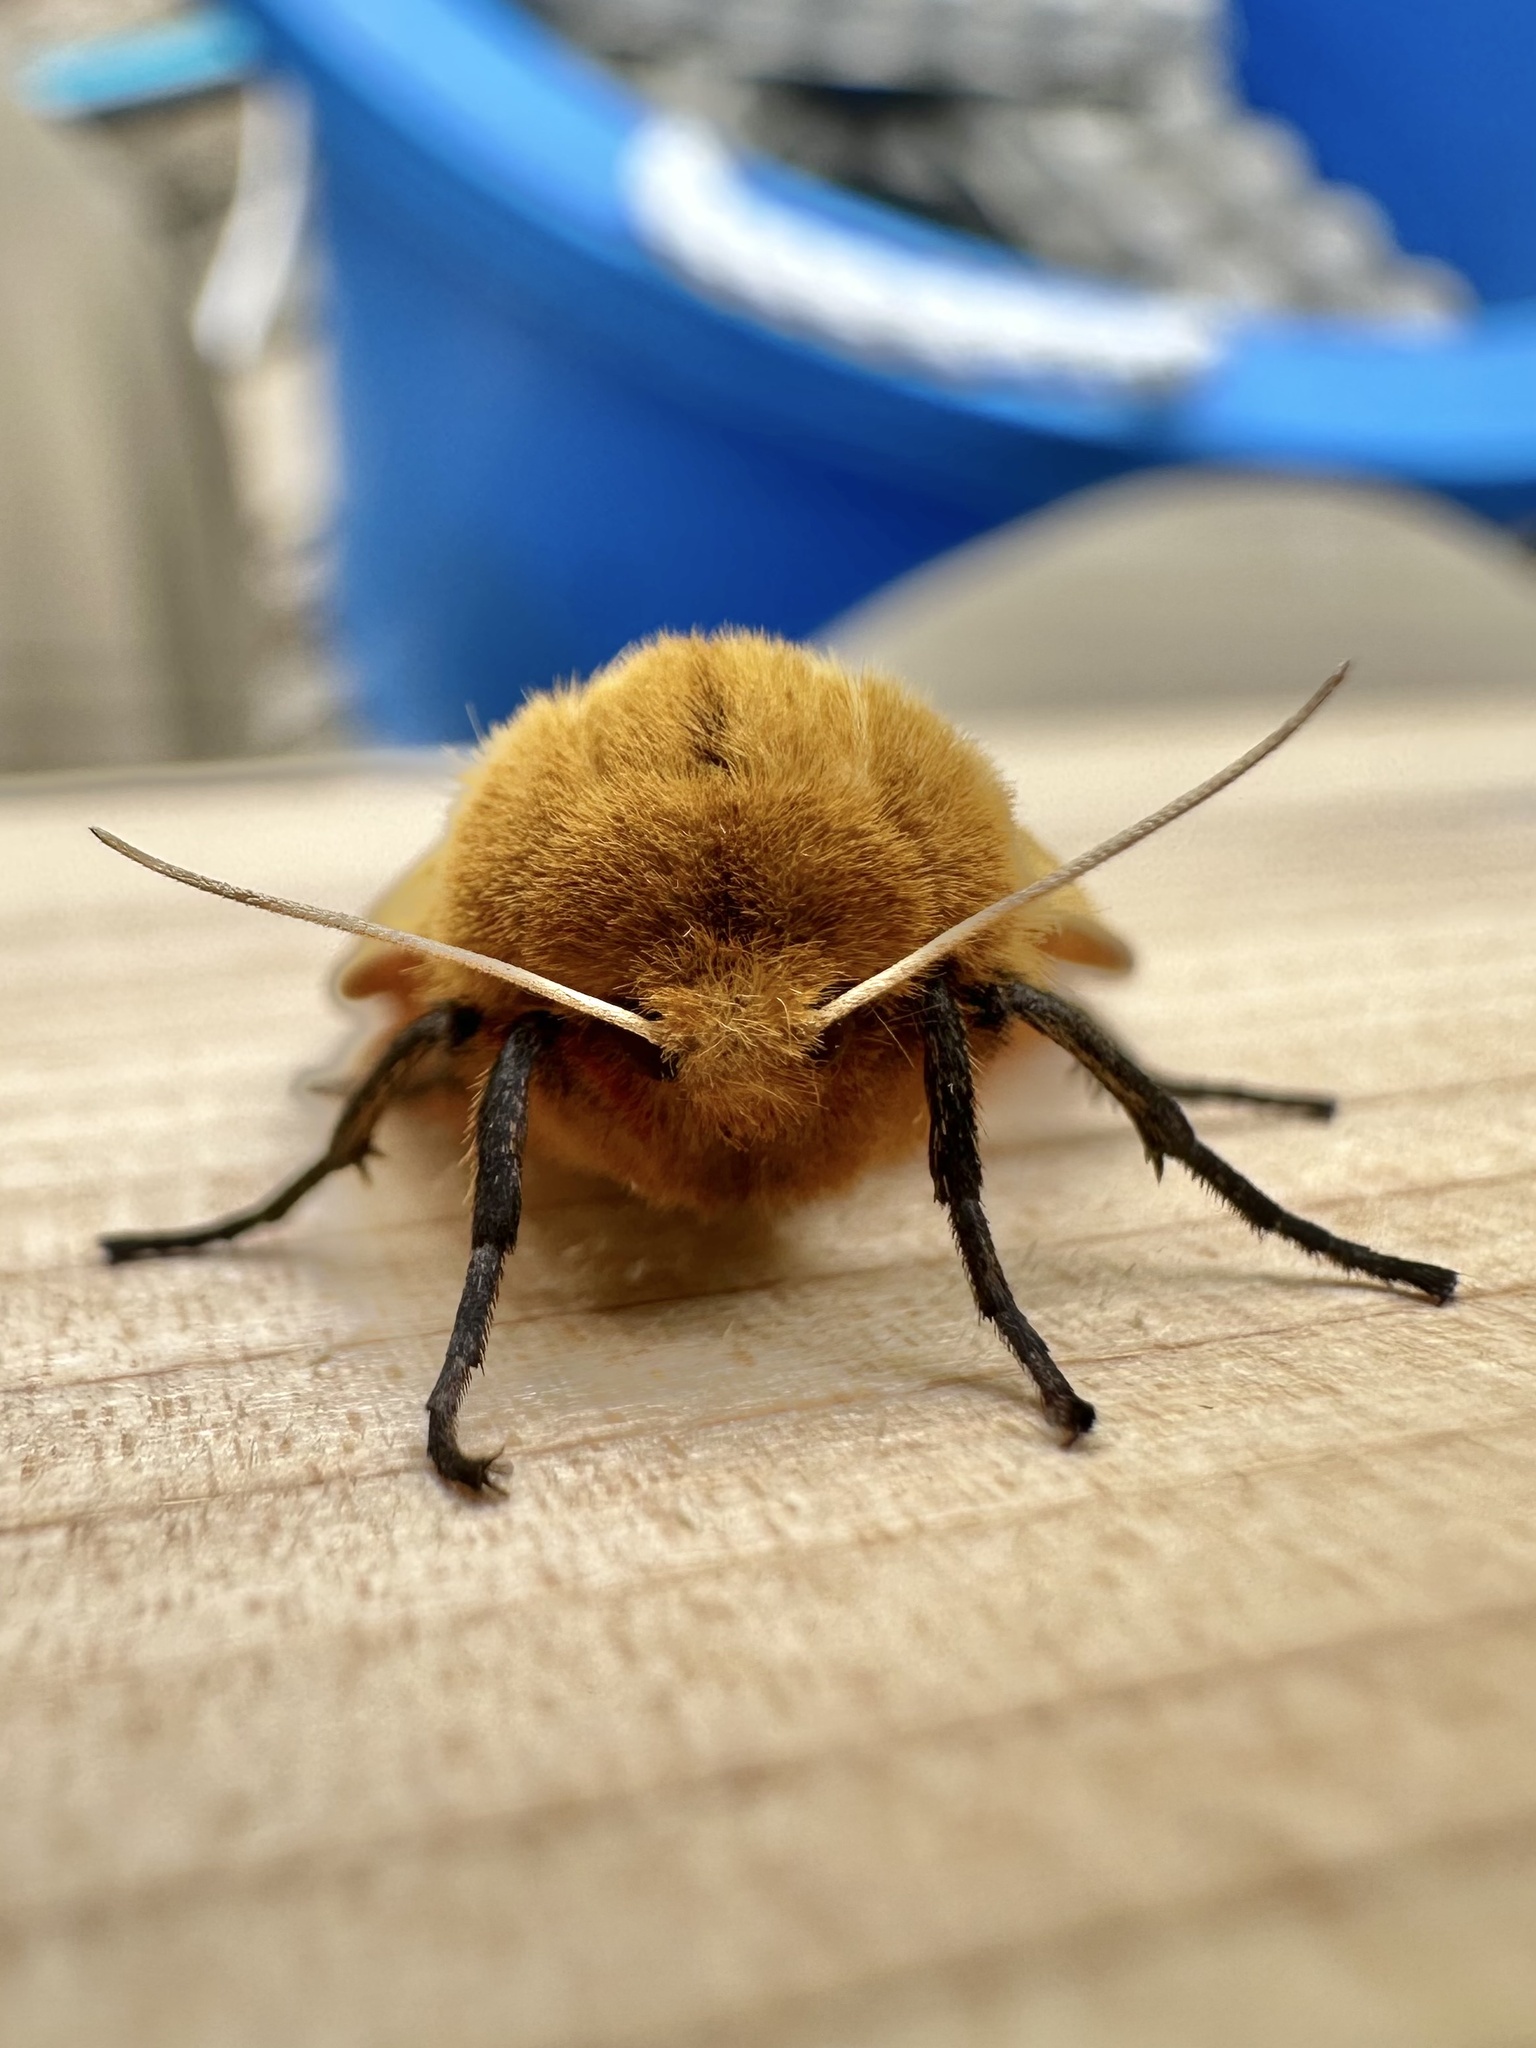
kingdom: Animalia
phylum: Arthropoda
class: Insecta
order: Lepidoptera
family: Erebidae
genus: Pyrrharctia
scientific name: Pyrrharctia isabella
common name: Isabella tiger moth
